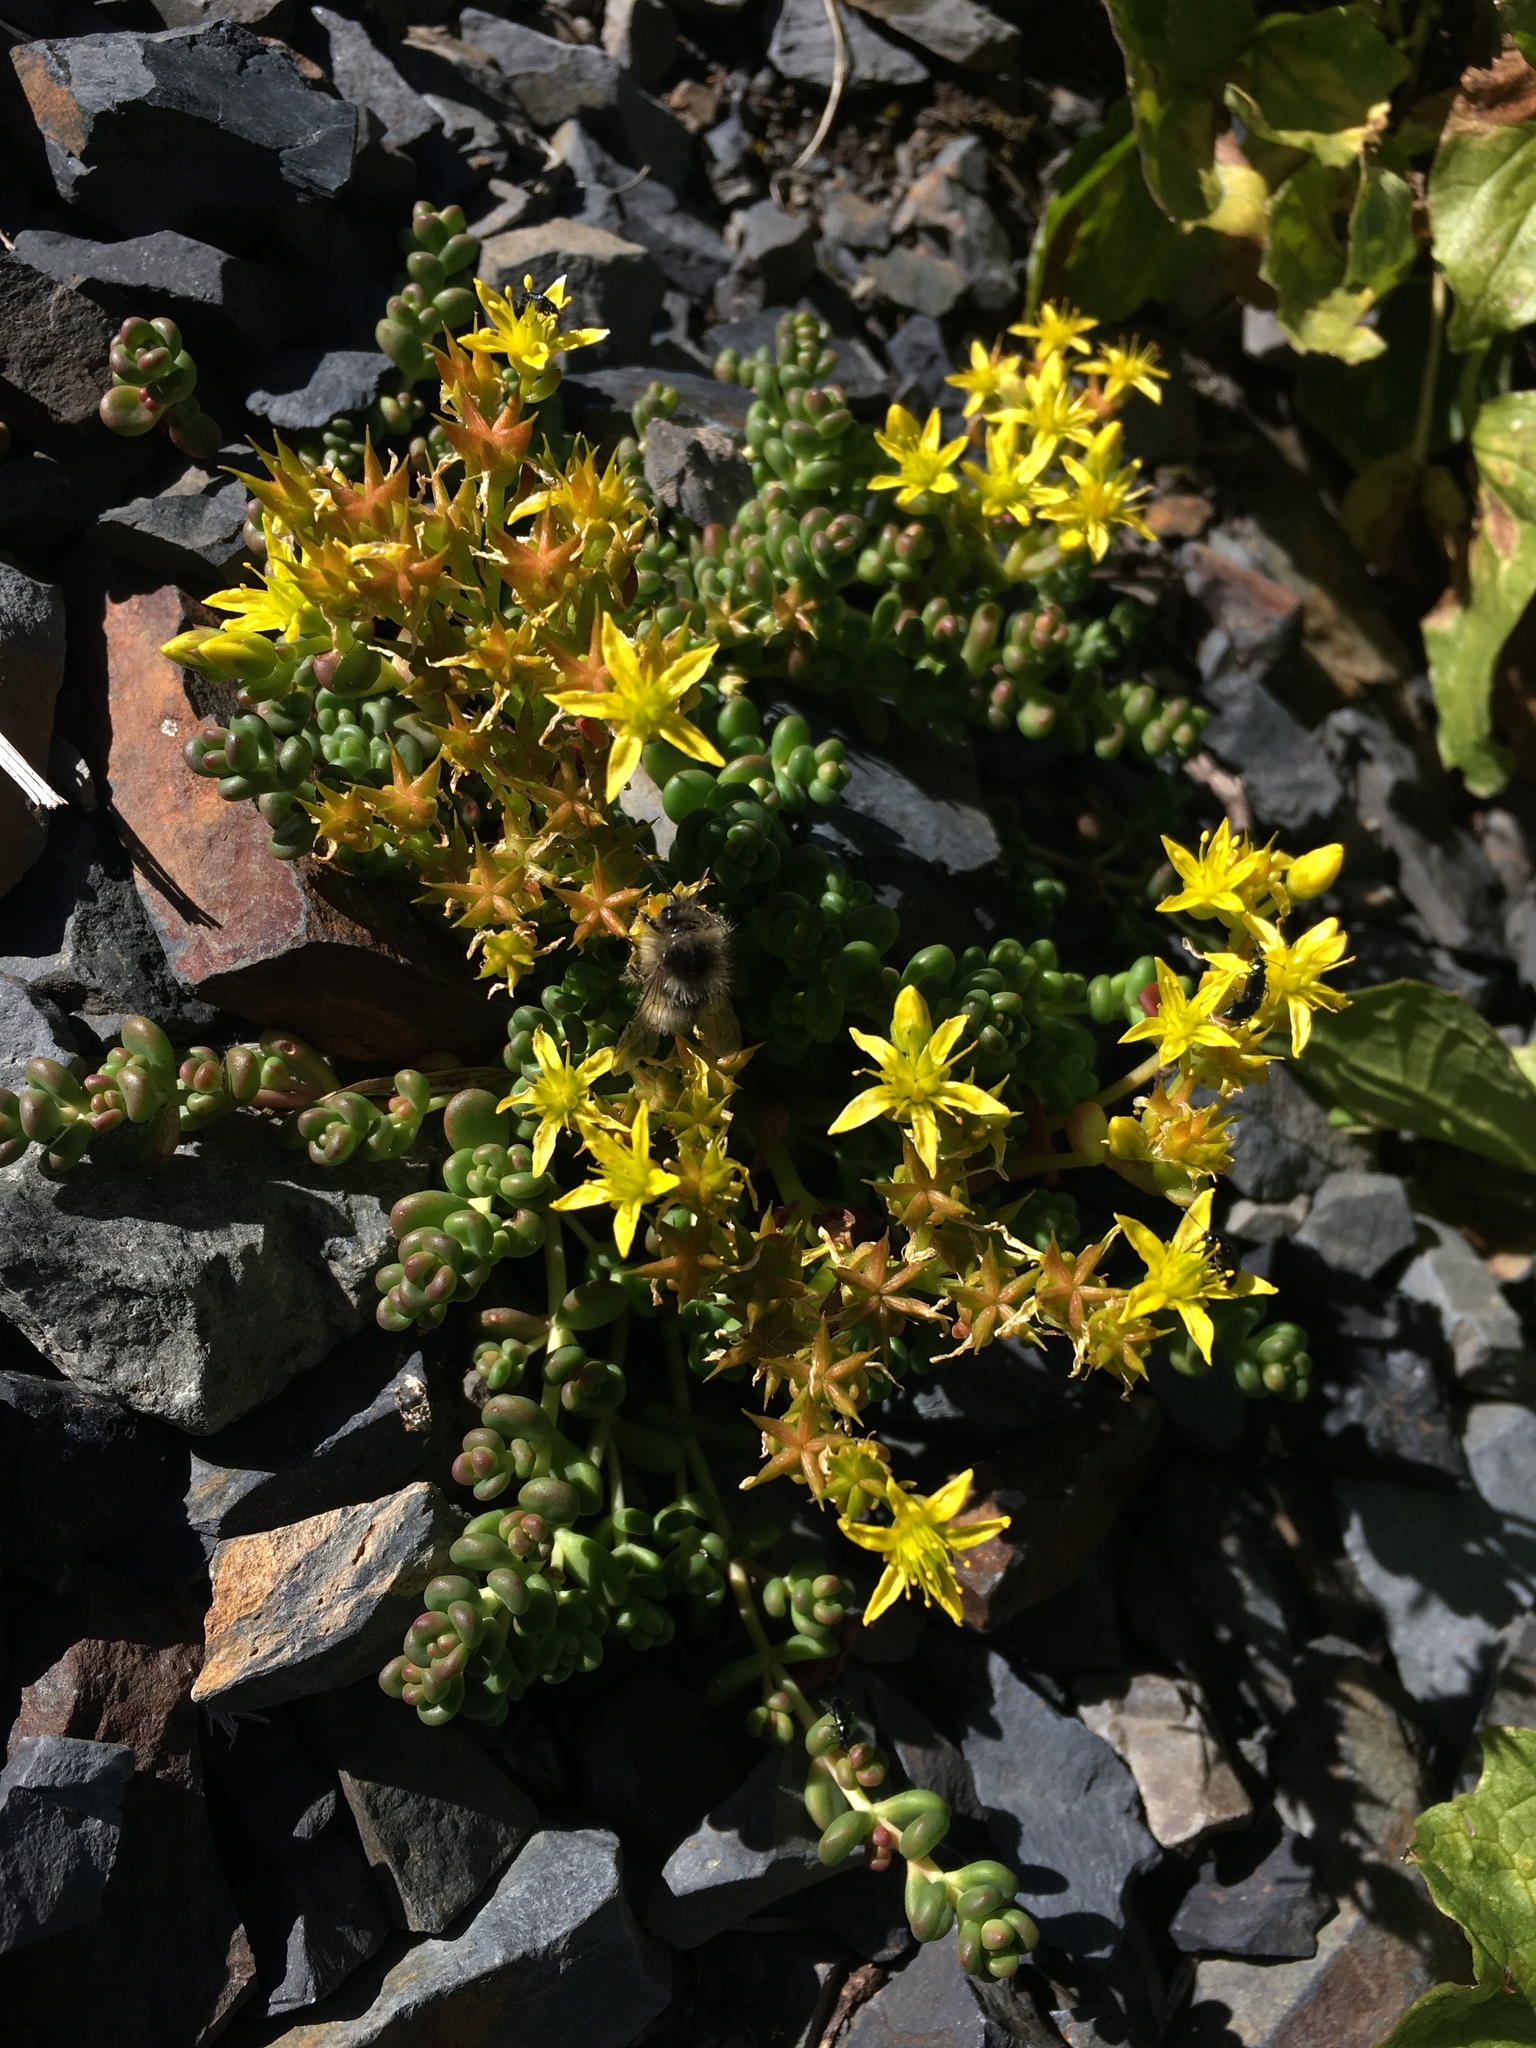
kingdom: Plantae
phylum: Tracheophyta
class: Magnoliopsida
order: Saxifragales
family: Crassulaceae
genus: Sedum
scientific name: Sedum divergens
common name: Cascade stonecrop
